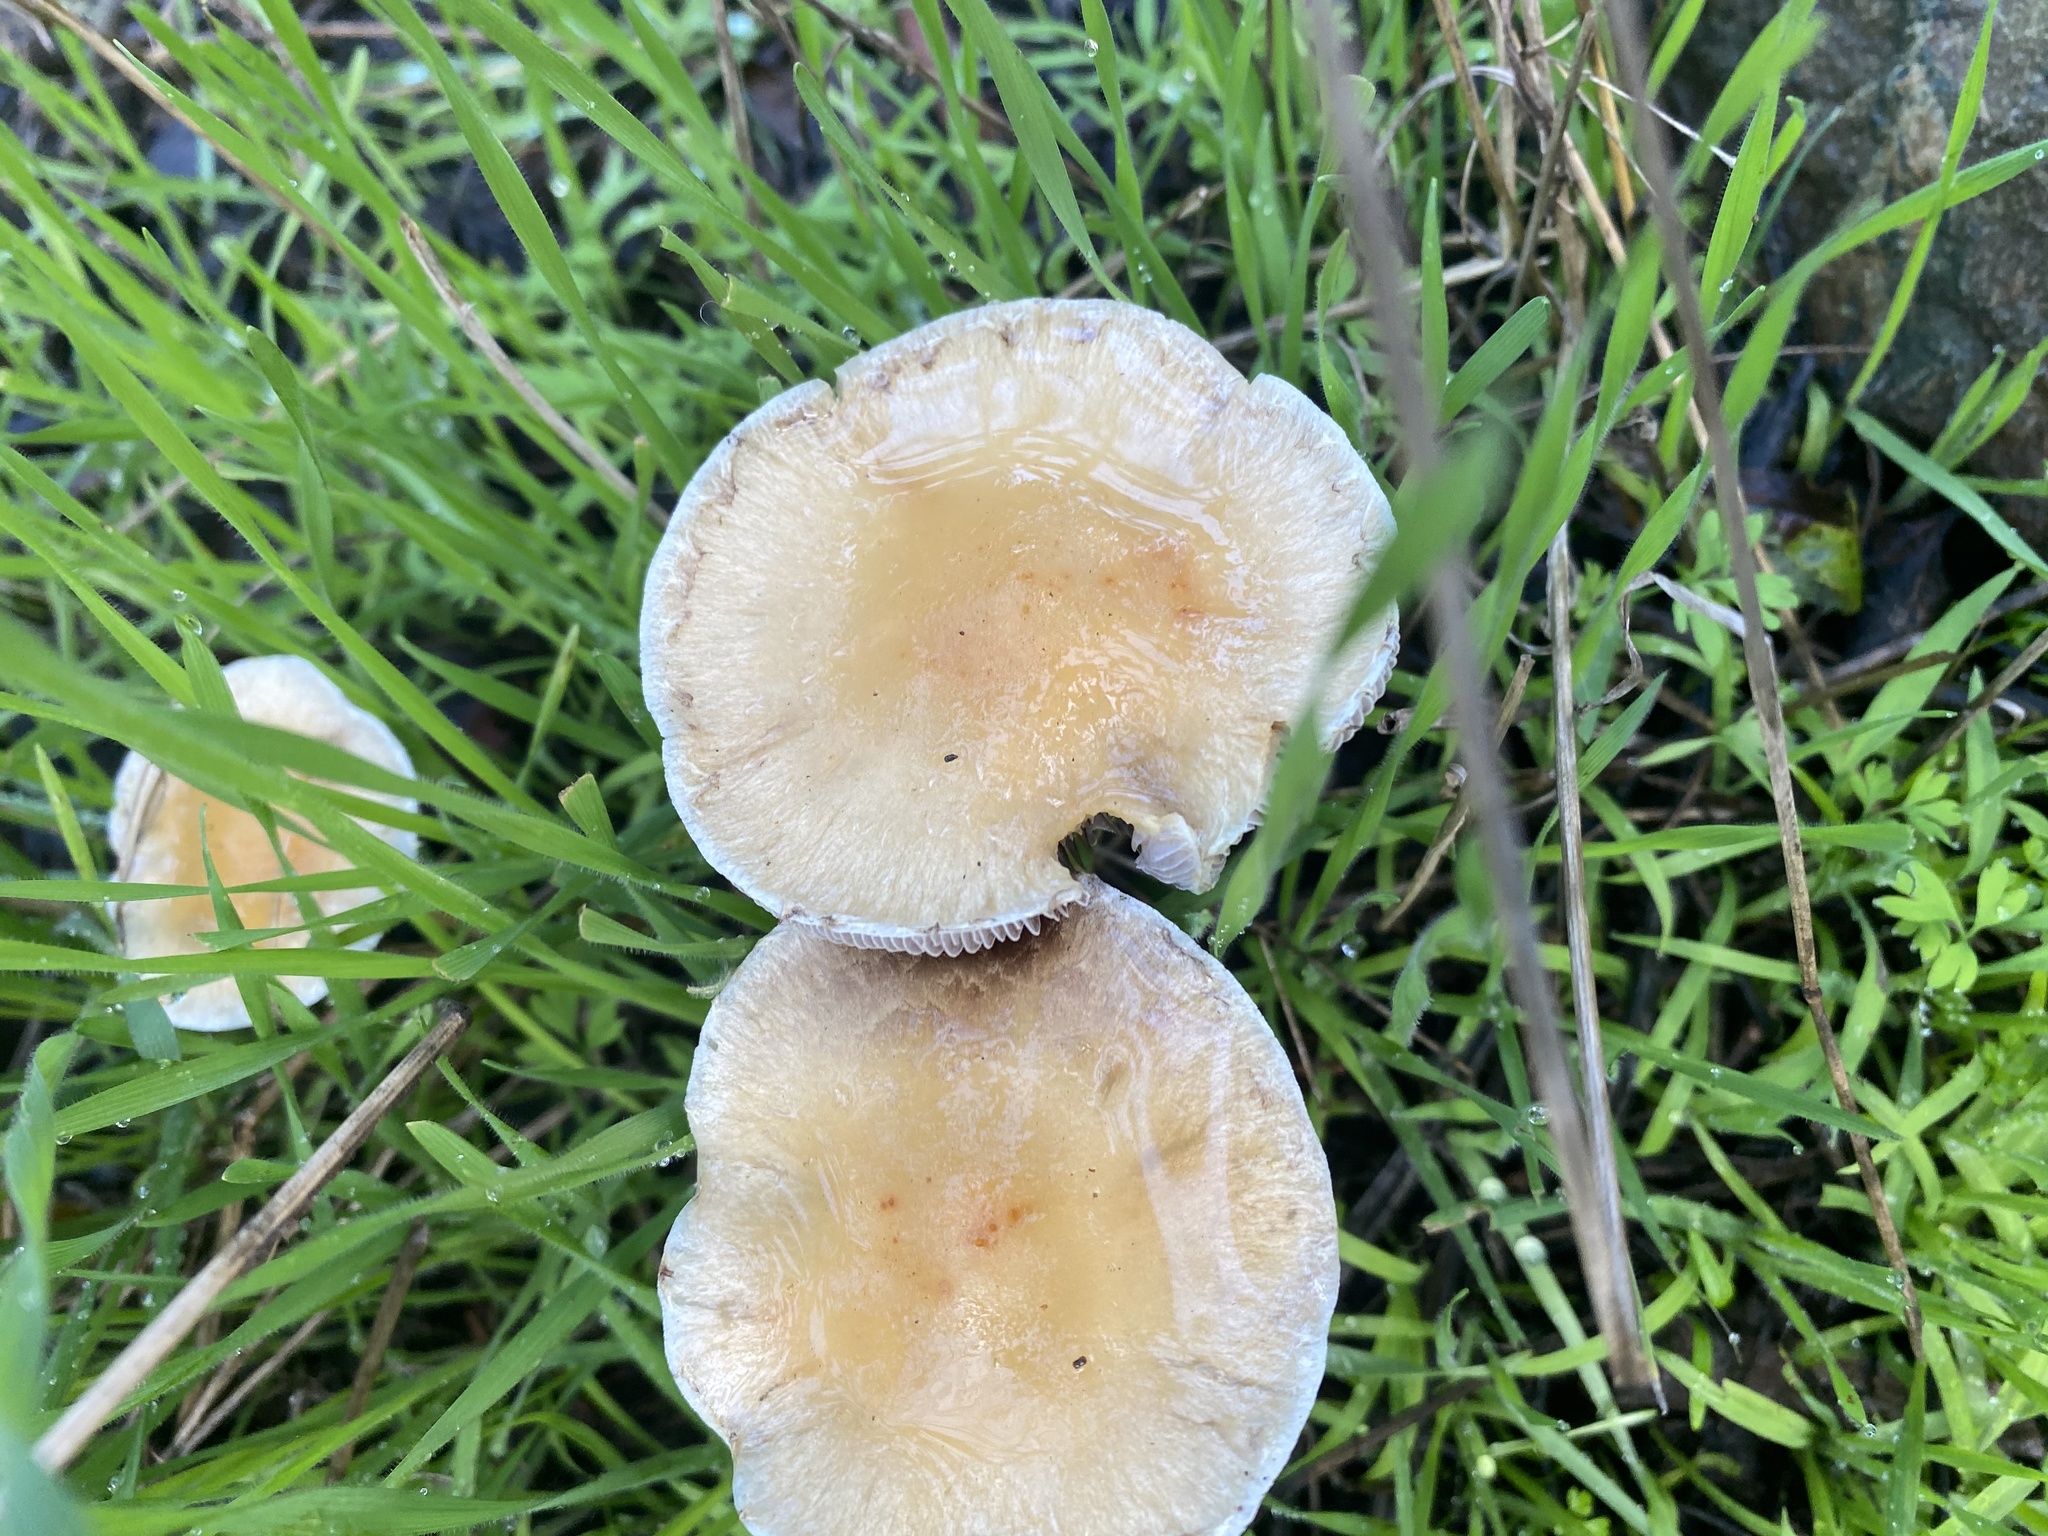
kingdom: Fungi
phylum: Basidiomycota
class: Agaricomycetes
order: Agaricales
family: Strophariaceae
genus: Leratiomyces
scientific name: Leratiomyces percevalii
